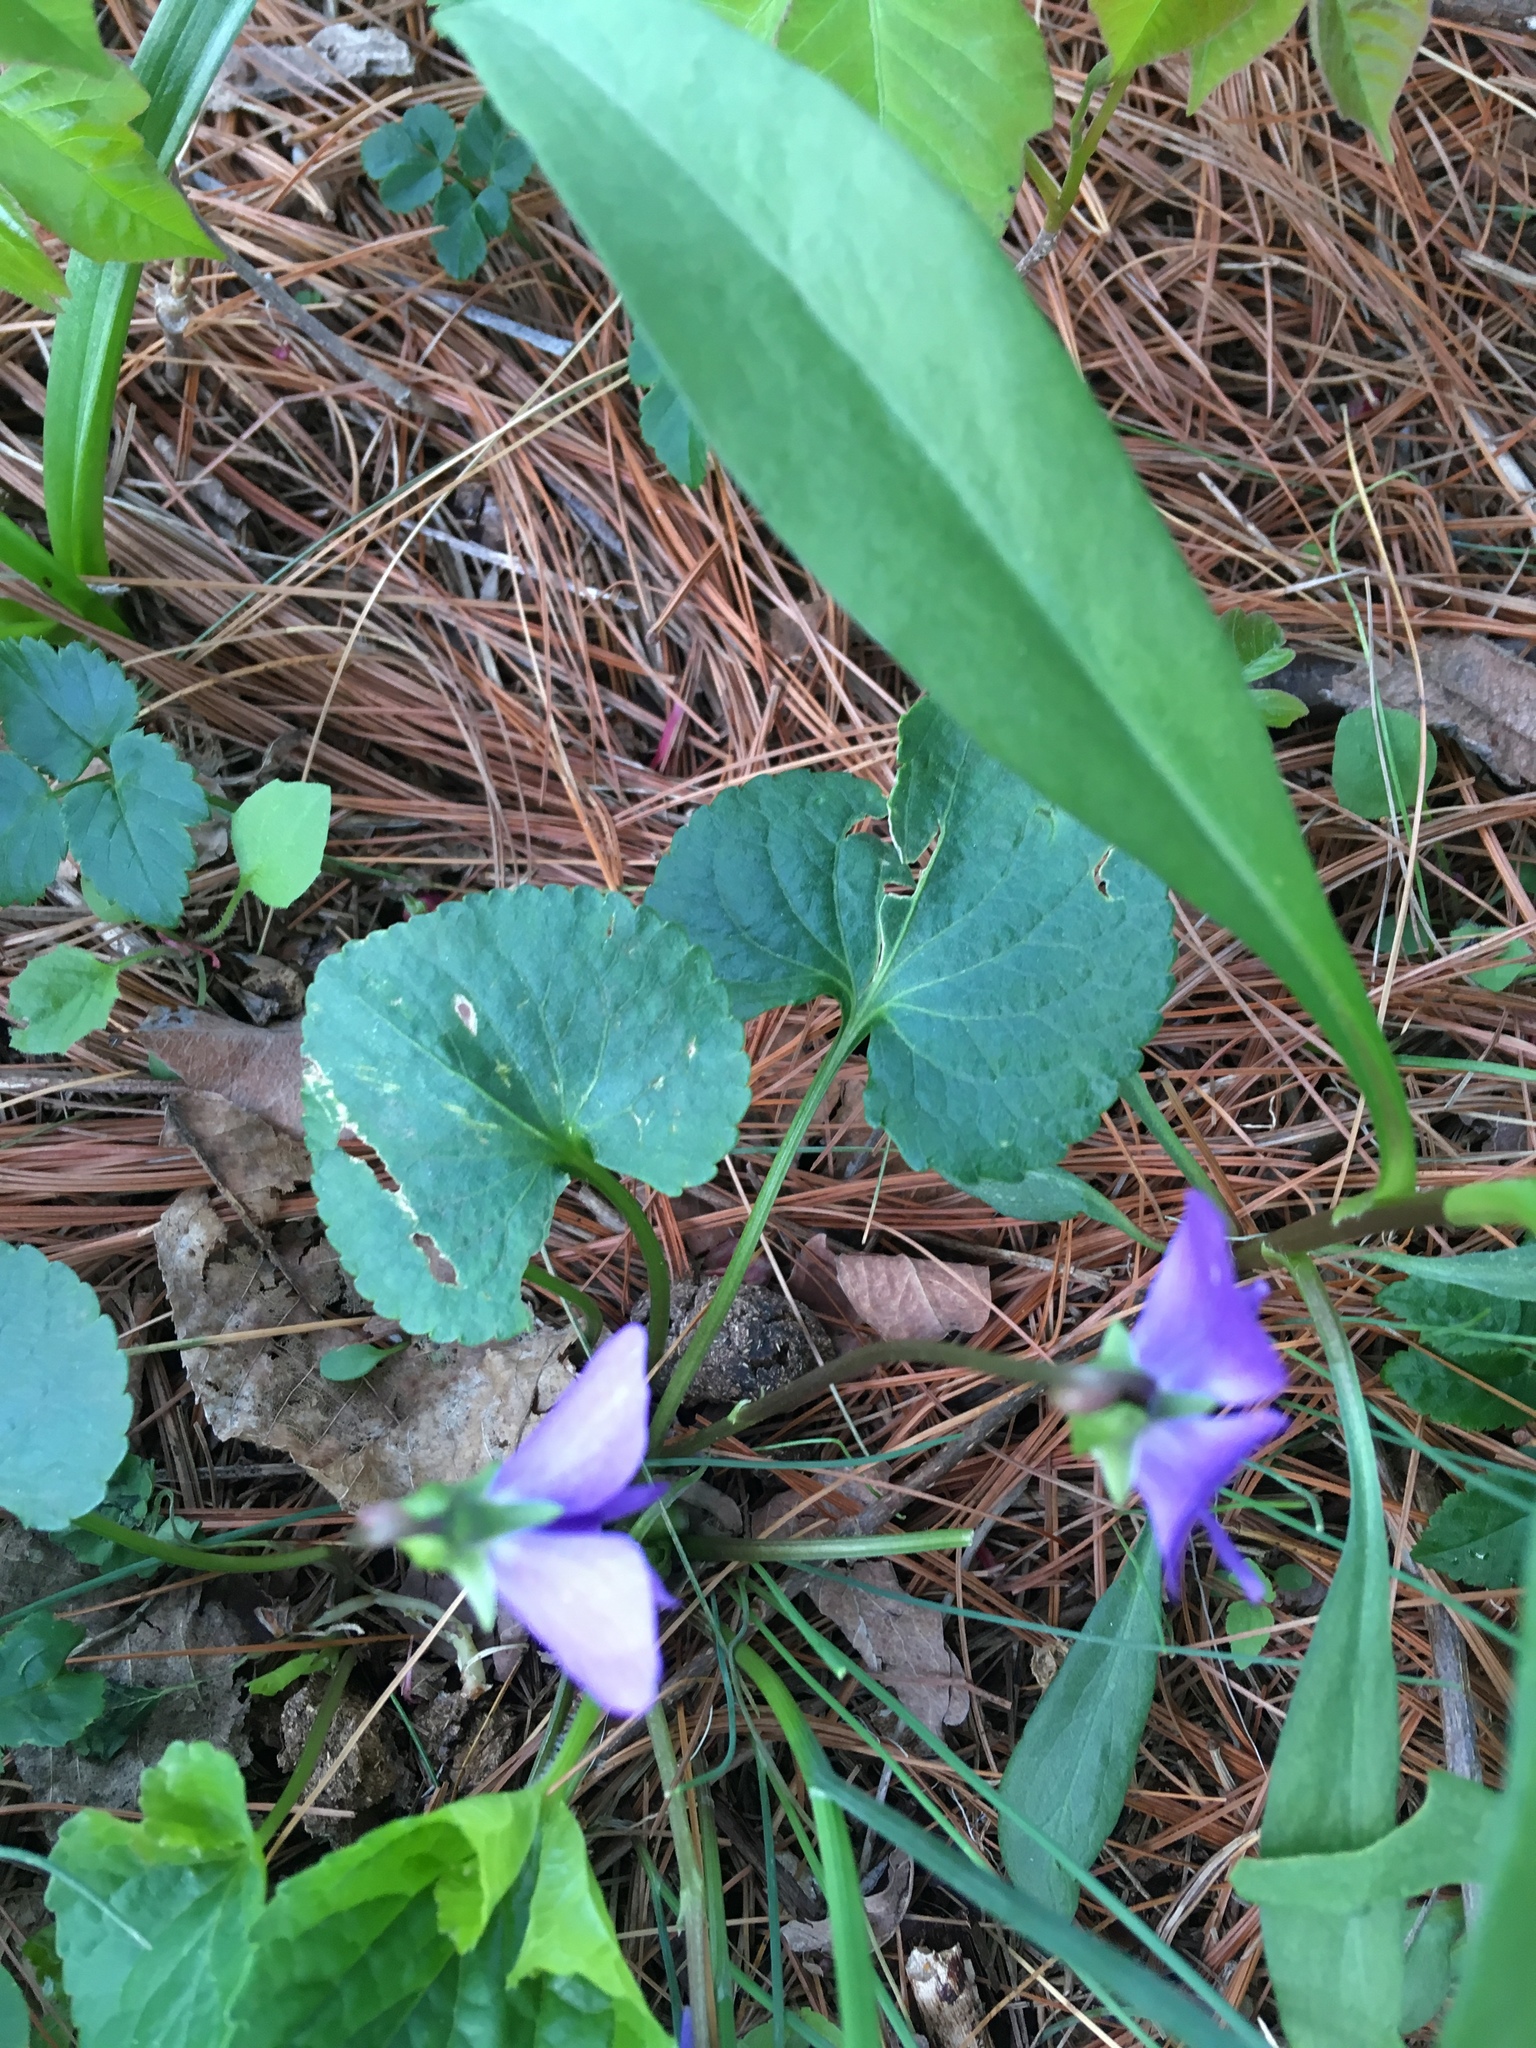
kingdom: Plantae
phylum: Tracheophyta
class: Magnoliopsida
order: Malpighiales
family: Violaceae
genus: Viola
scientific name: Viola sororia
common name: Dooryard violet
